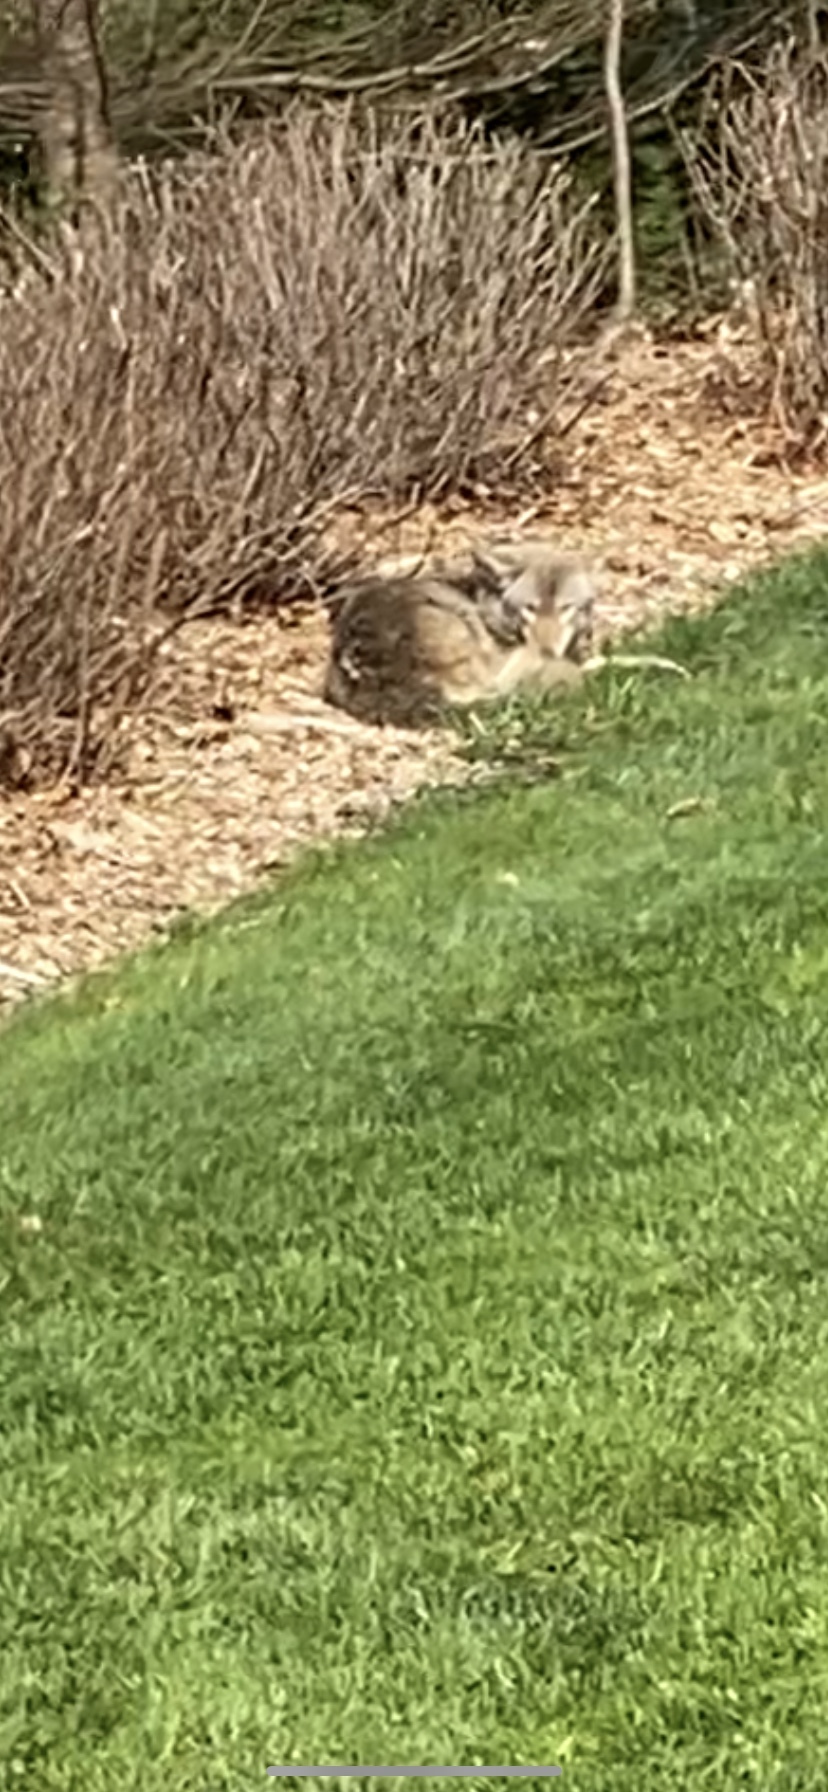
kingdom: Animalia
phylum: Chordata
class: Mammalia
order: Carnivora
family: Canidae
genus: Canis
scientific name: Canis latrans
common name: Coyote
